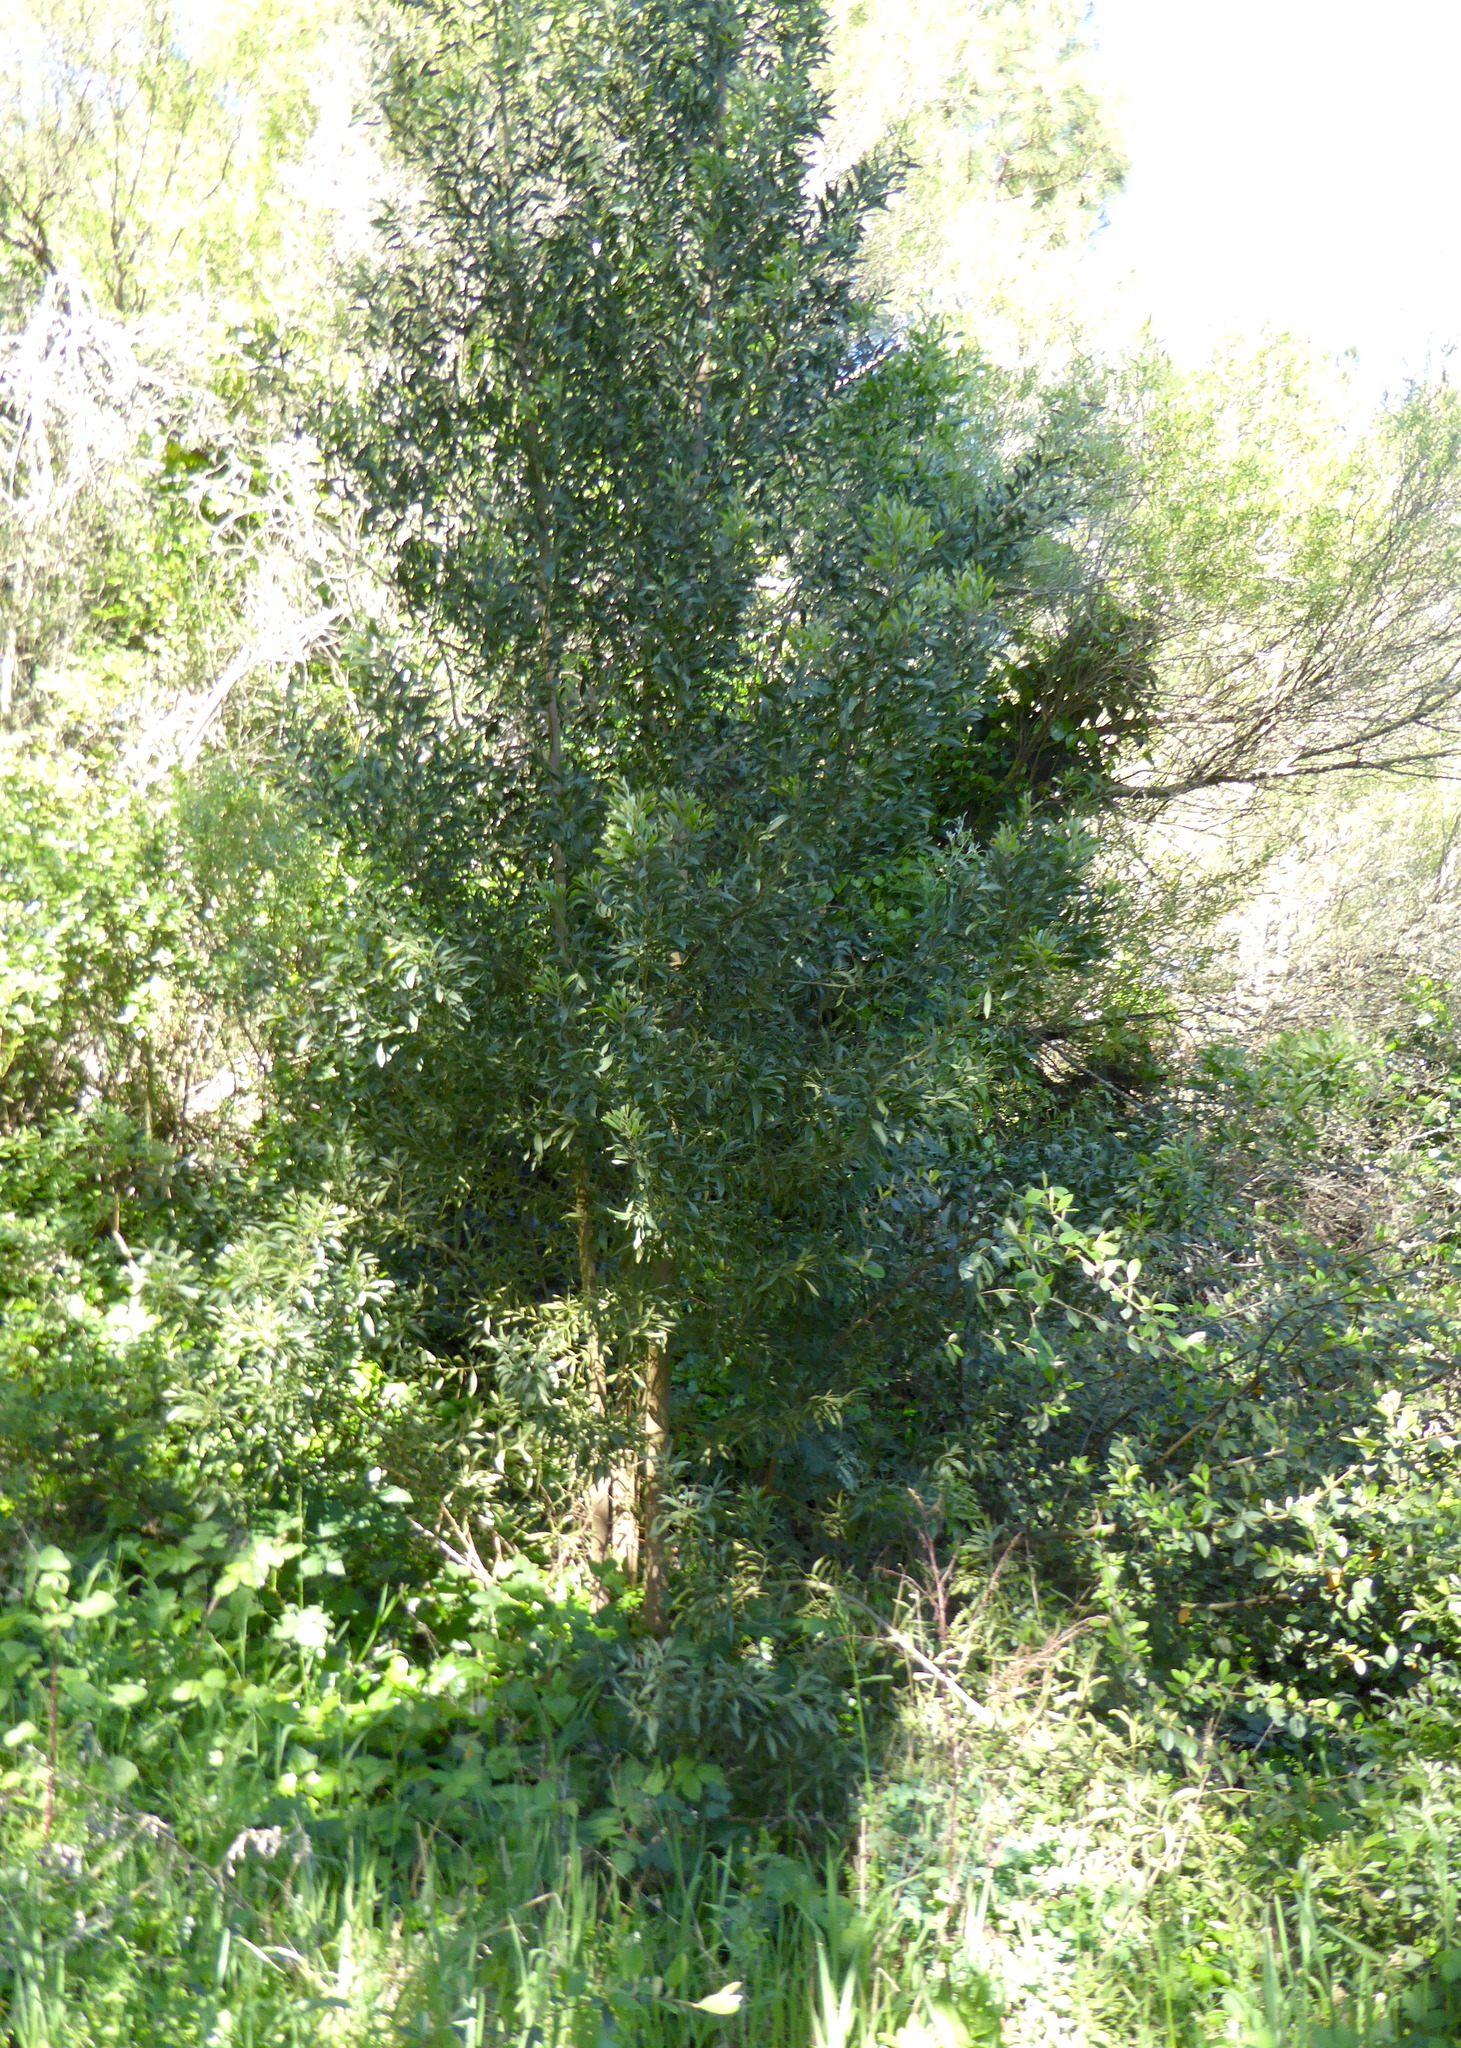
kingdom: Plantae
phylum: Tracheophyta
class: Magnoliopsida
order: Fabales
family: Fabaceae
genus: Acacia
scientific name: Acacia melanoxylon
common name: Blackwood
